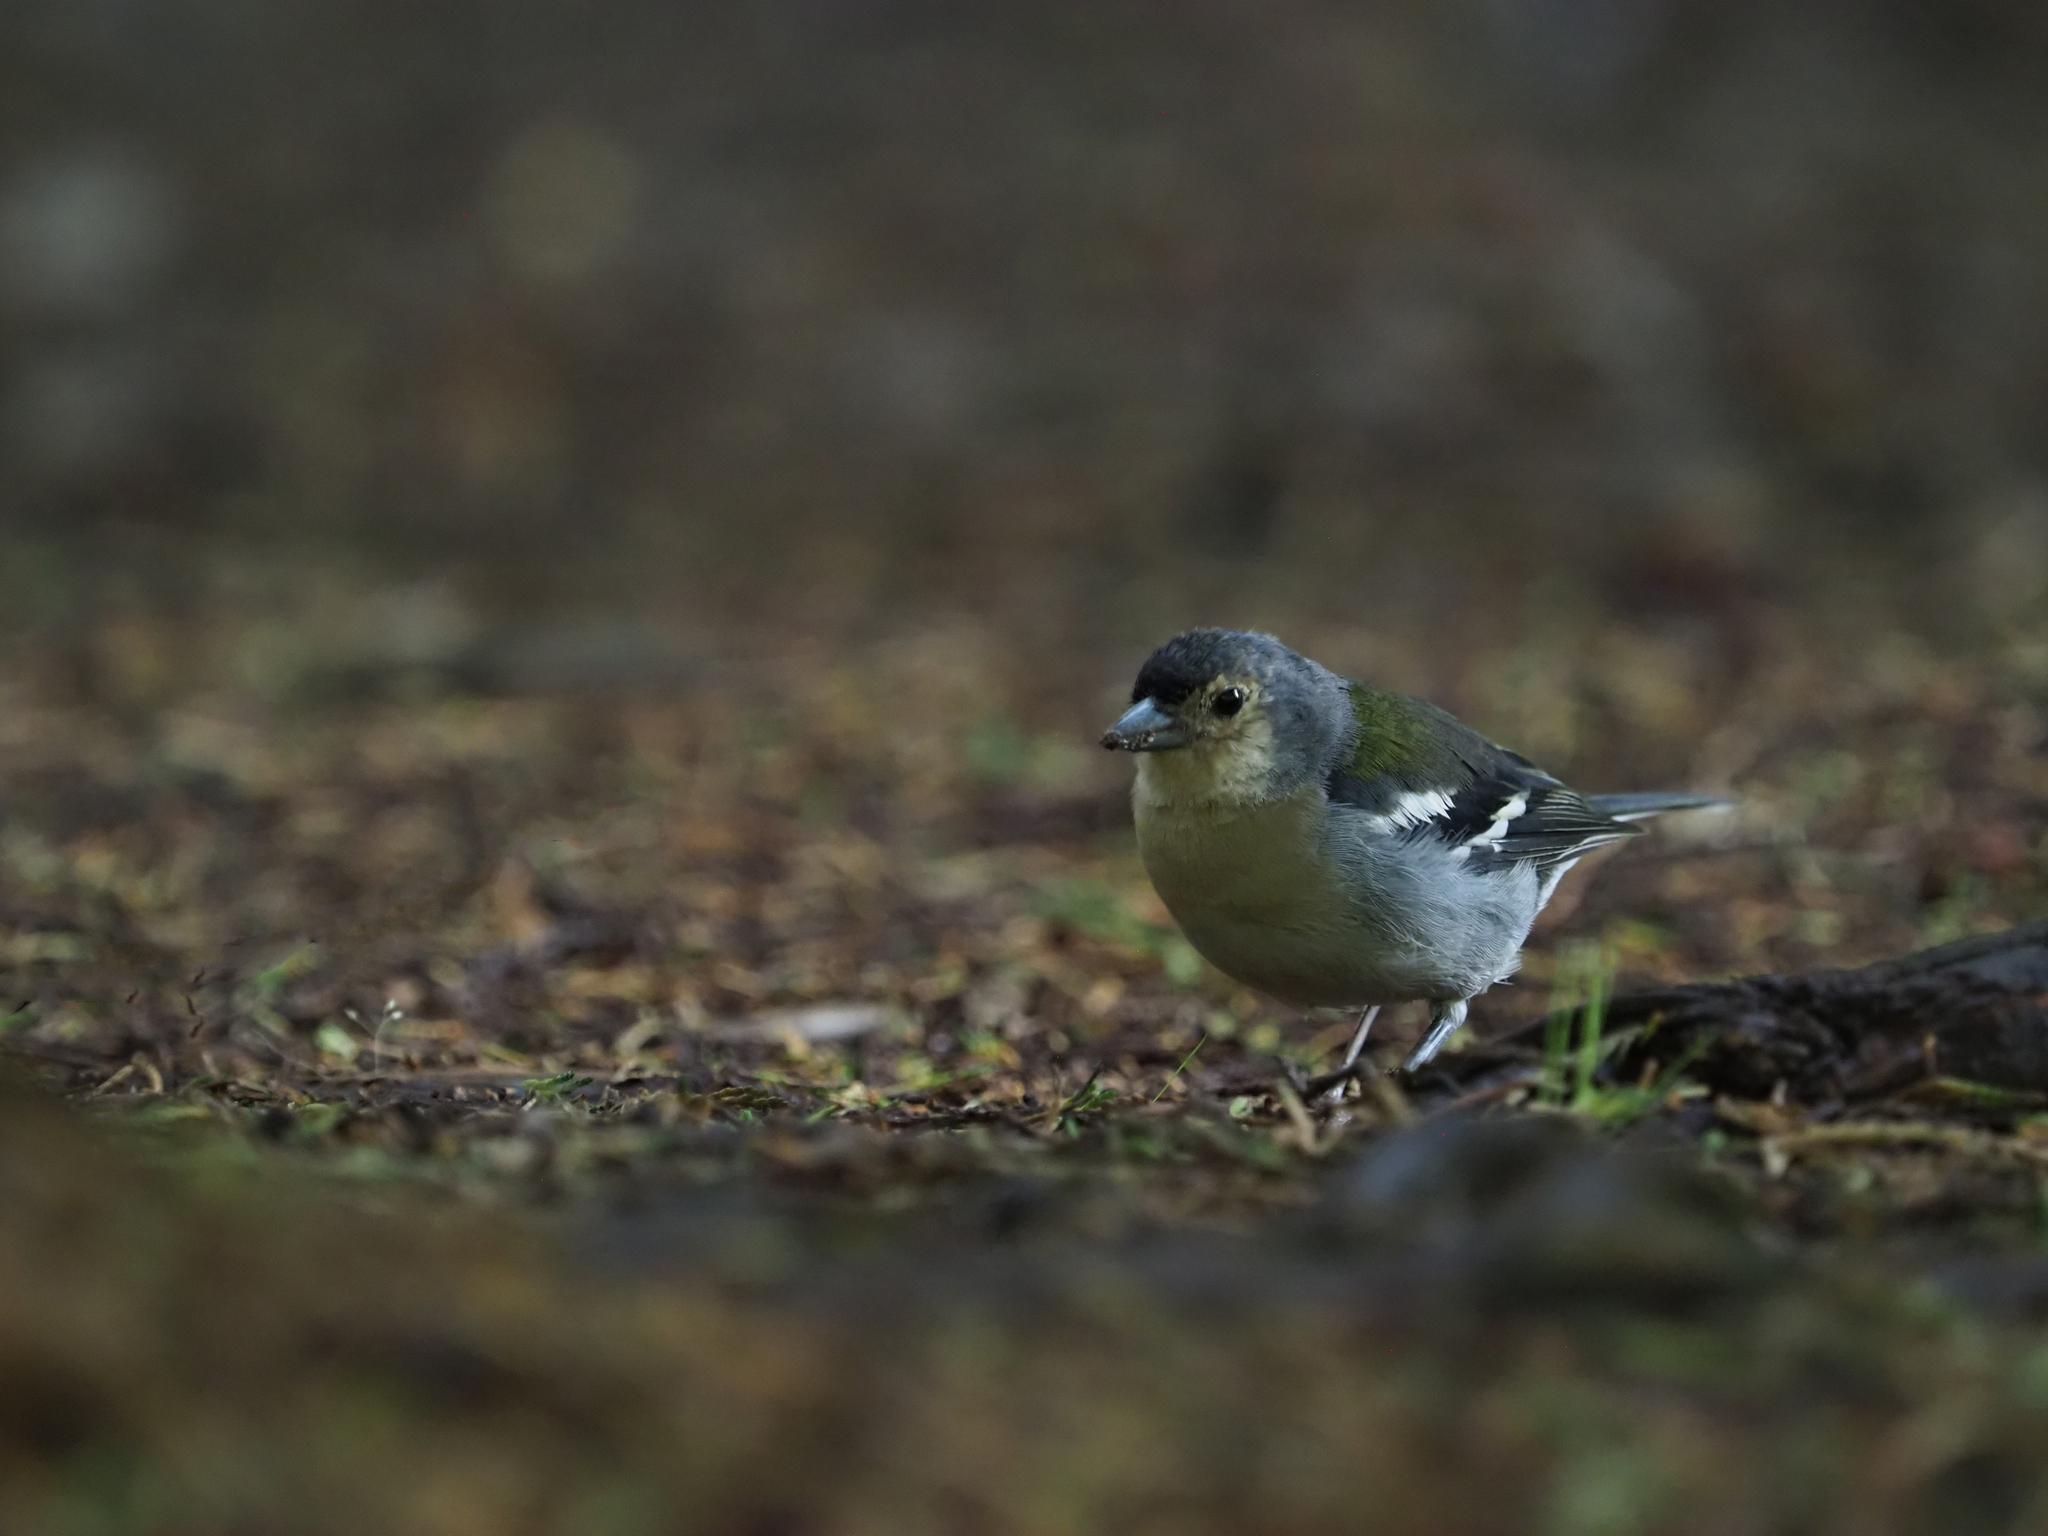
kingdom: Animalia
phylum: Chordata
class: Aves
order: Passeriformes
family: Fringillidae
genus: Fringilla
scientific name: Fringilla maderensis
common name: Madeira chaffinch
